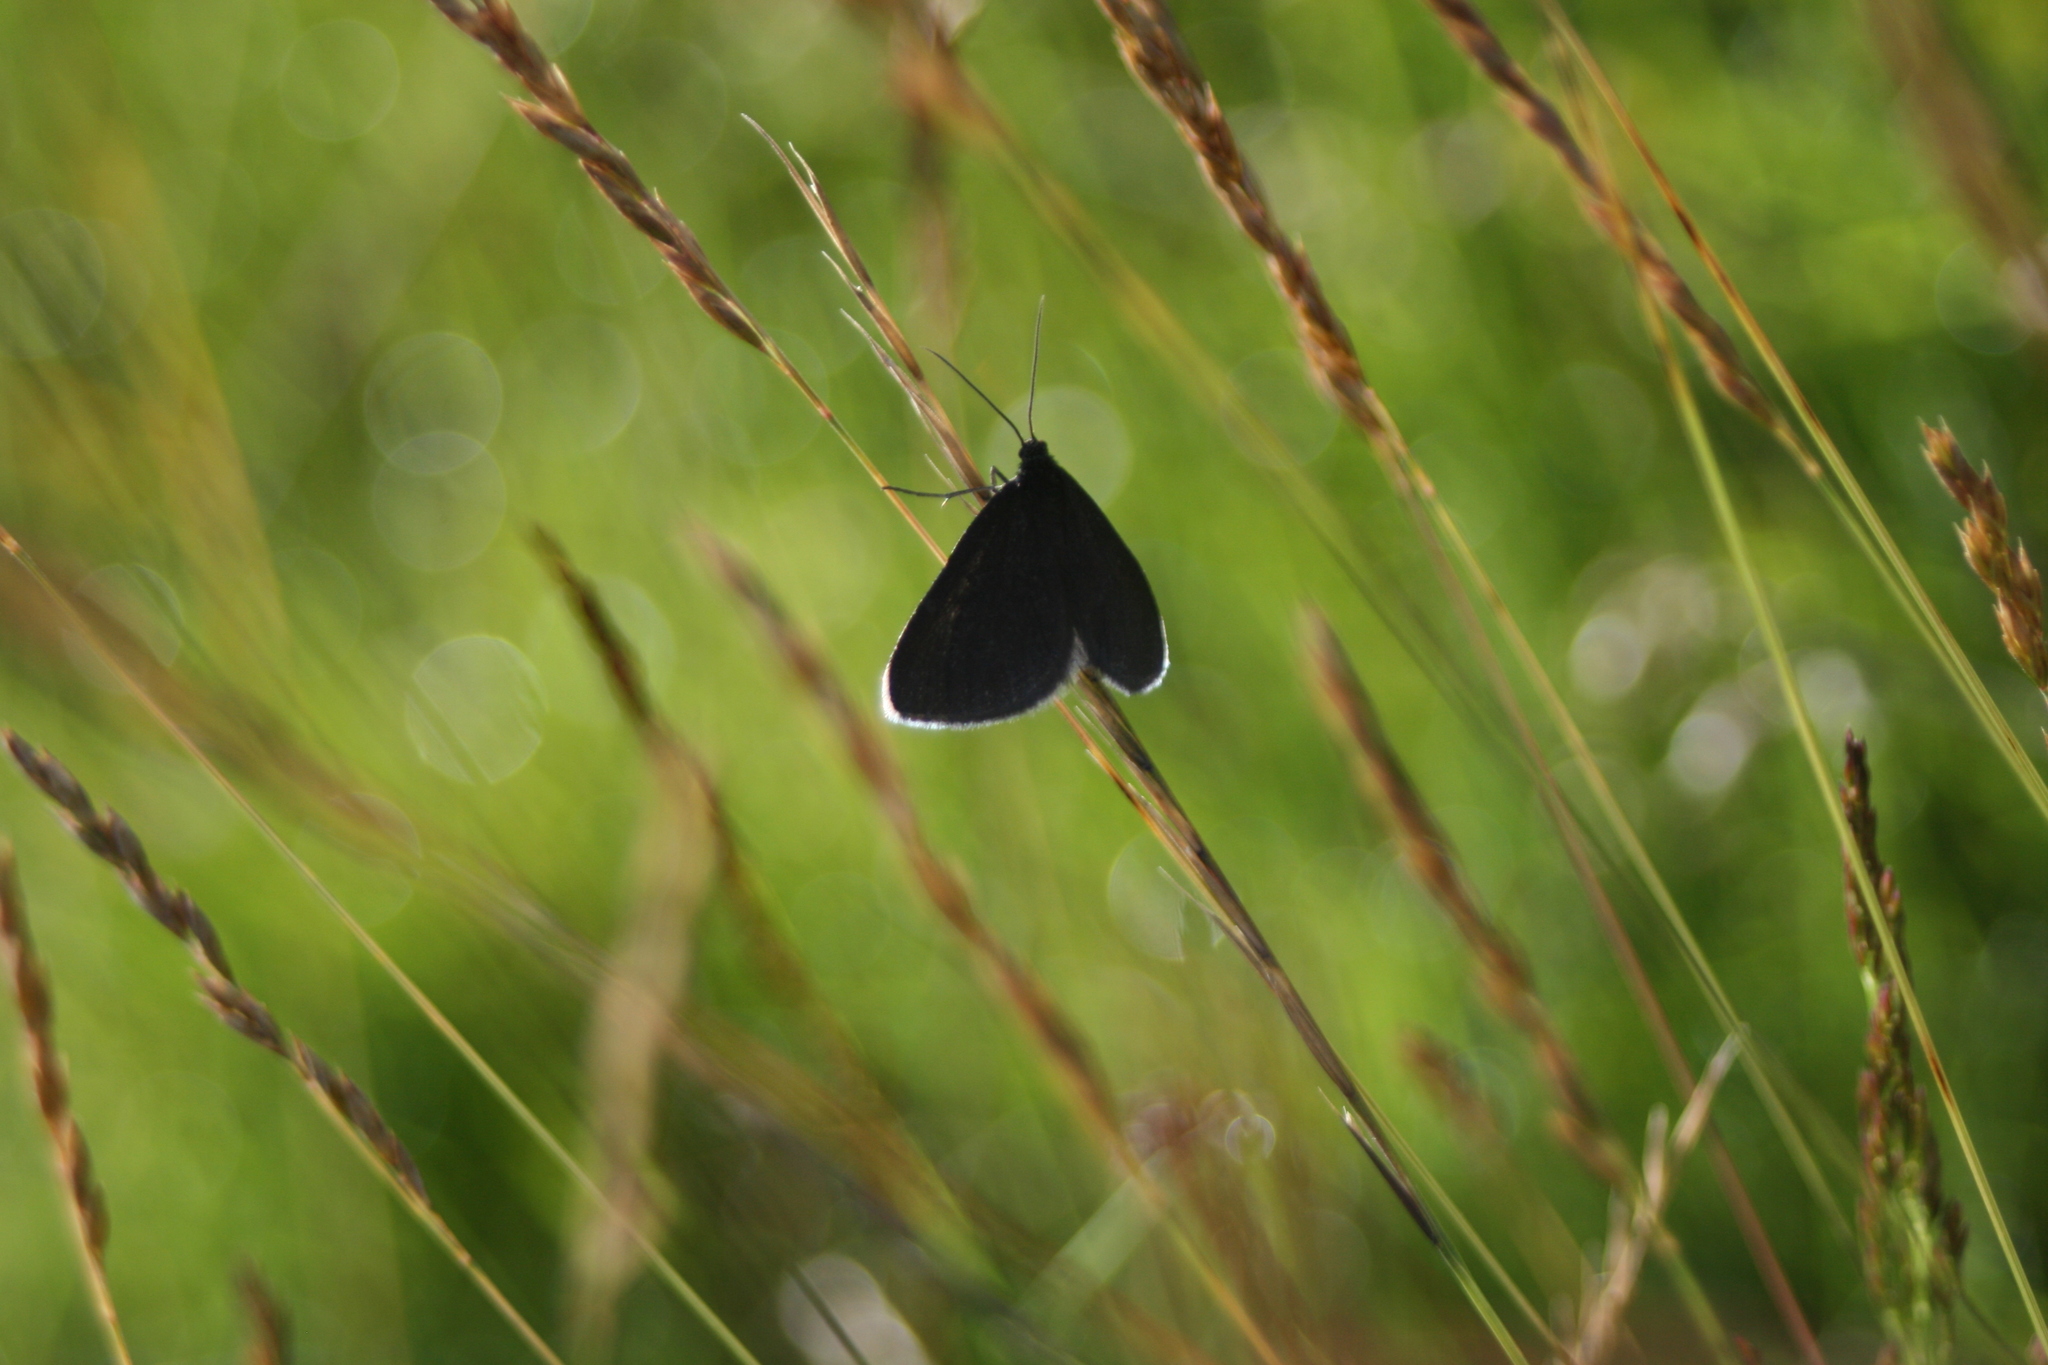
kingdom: Animalia
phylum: Arthropoda
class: Insecta
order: Lepidoptera
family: Geometridae
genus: Odezia
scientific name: Odezia atrata
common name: Chimney sweeper
